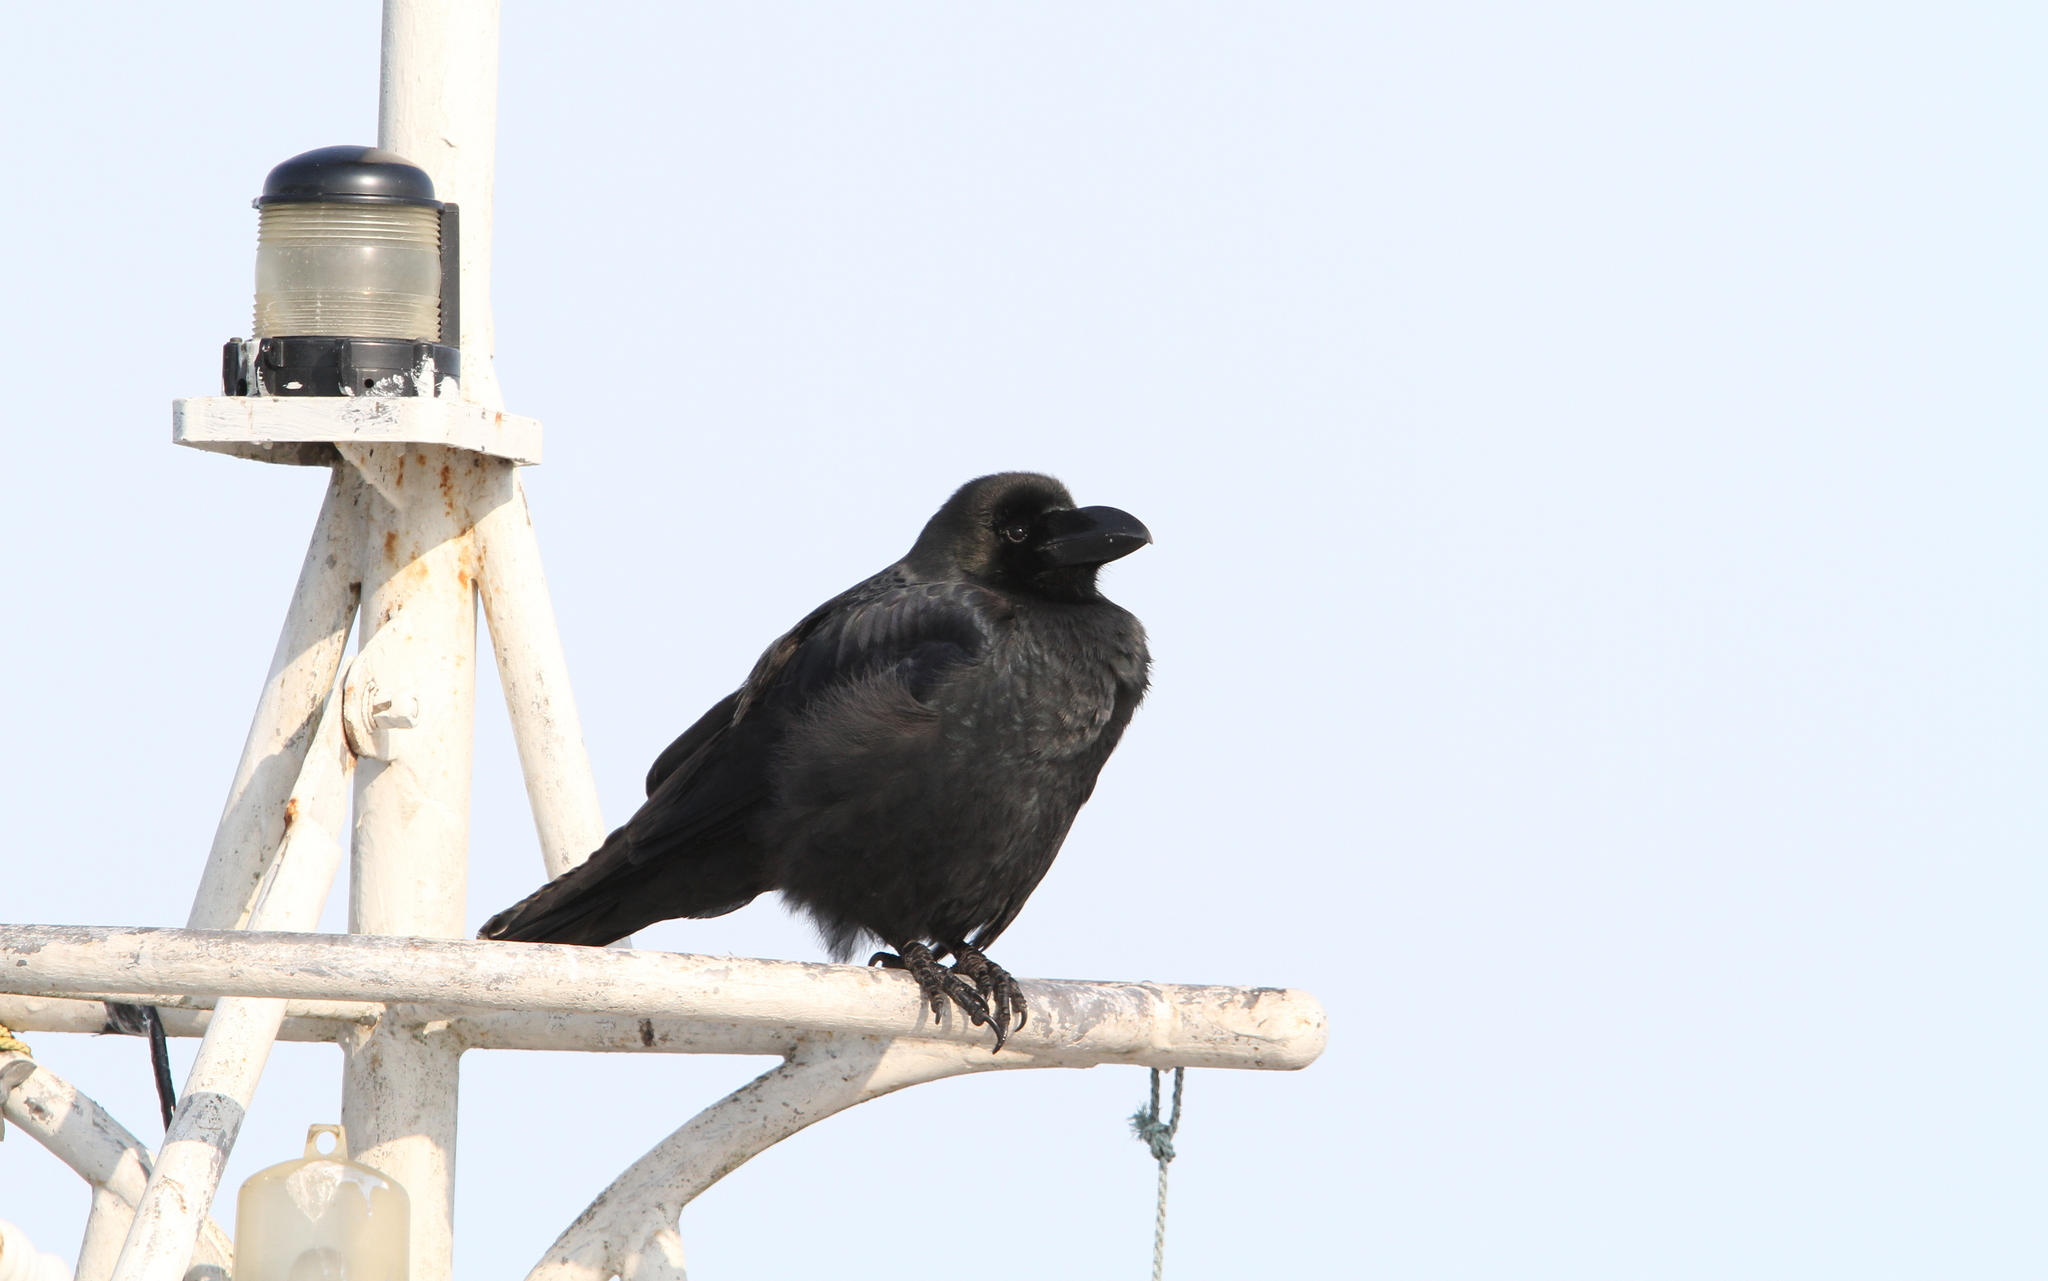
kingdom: Animalia
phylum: Chordata
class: Aves
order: Passeriformes
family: Corvidae
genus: Corvus
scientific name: Corvus macrorhynchos
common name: Large-billed crow
